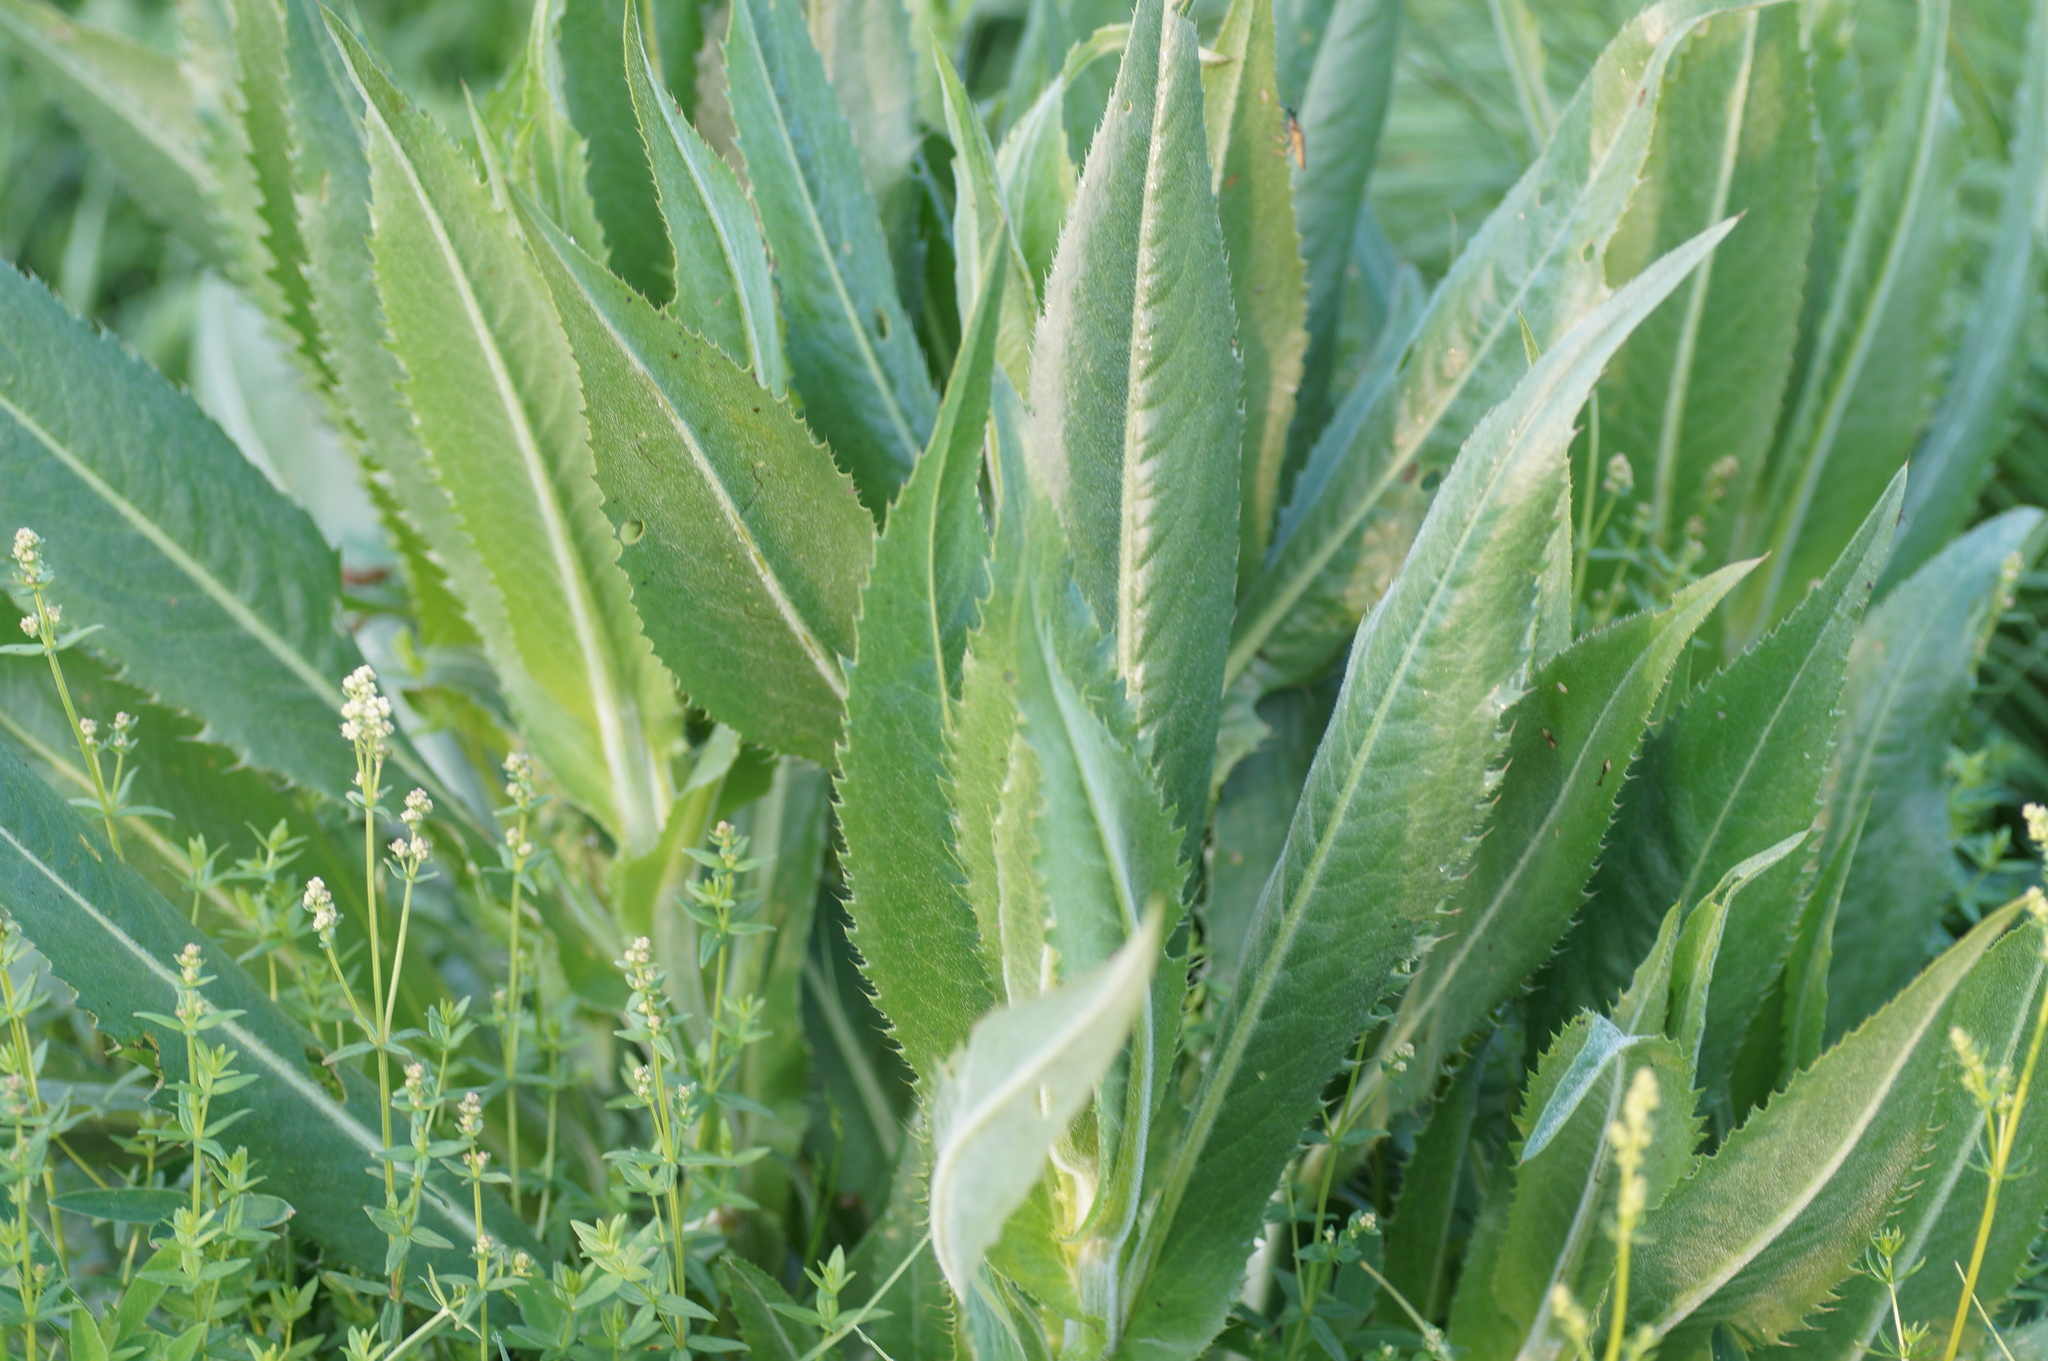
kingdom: Plantae
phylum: Tracheophyta
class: Magnoliopsida
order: Asterales
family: Asteraceae
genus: Cirsium
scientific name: Cirsium canum
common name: Queen anne's thistle
